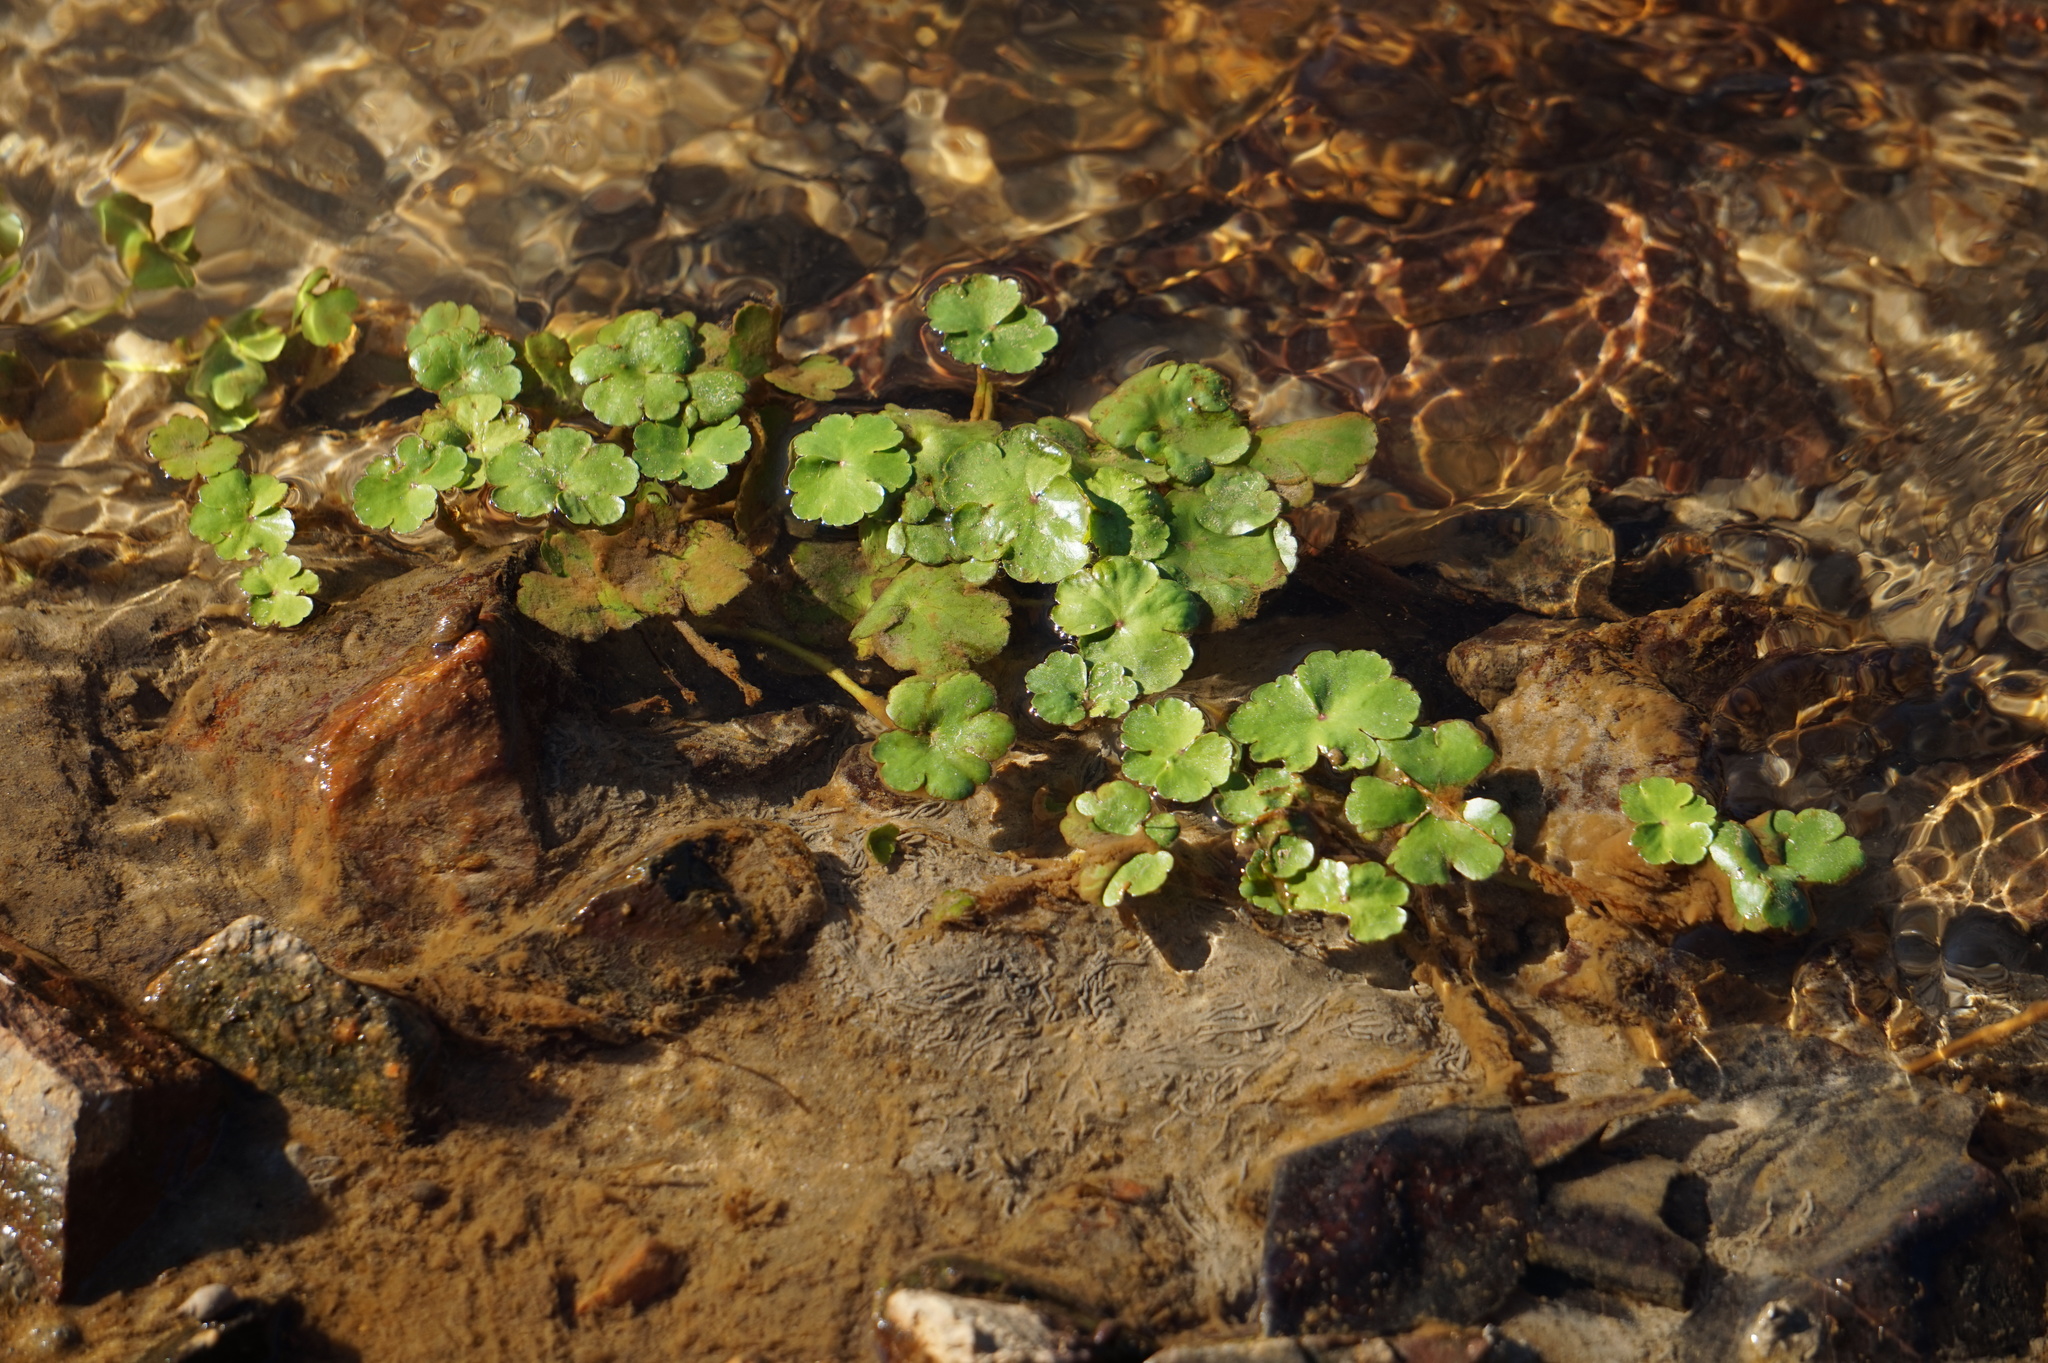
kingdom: Plantae
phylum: Tracheophyta
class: Magnoliopsida
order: Apiales
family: Araliaceae
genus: Hydrocotyle
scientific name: Hydrocotyle ranunculoides
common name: Floating pennywort
